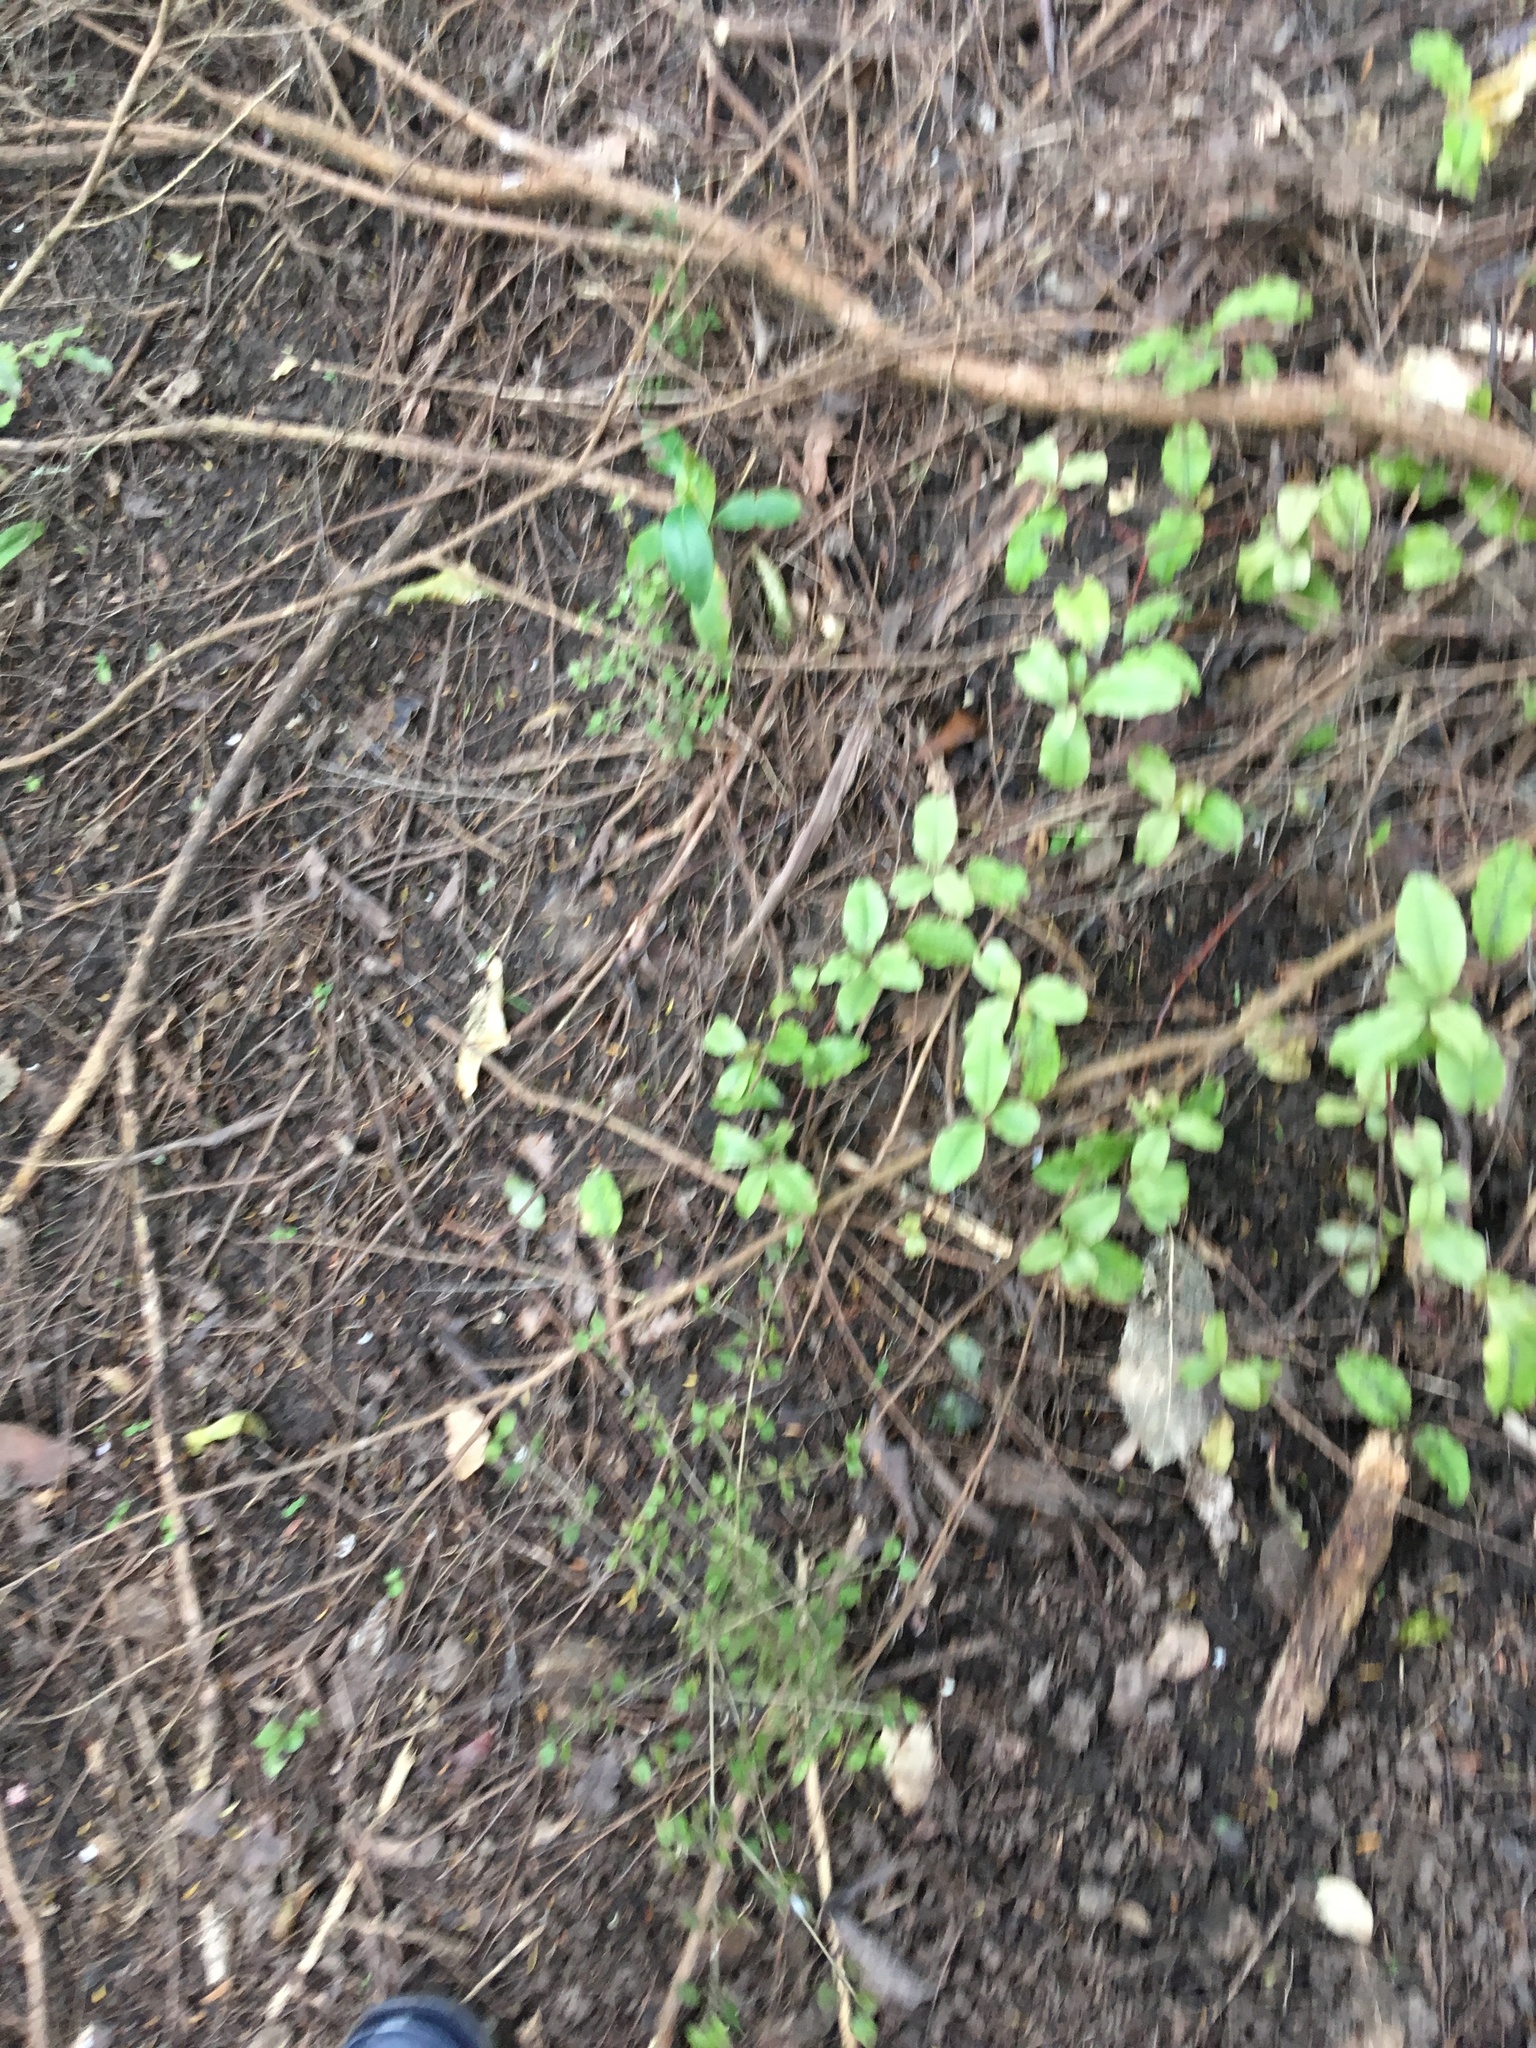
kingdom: Plantae
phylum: Tracheophyta
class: Magnoliopsida
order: Gentianales
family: Rubiaceae
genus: Coprosma
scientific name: Coprosma areolata
